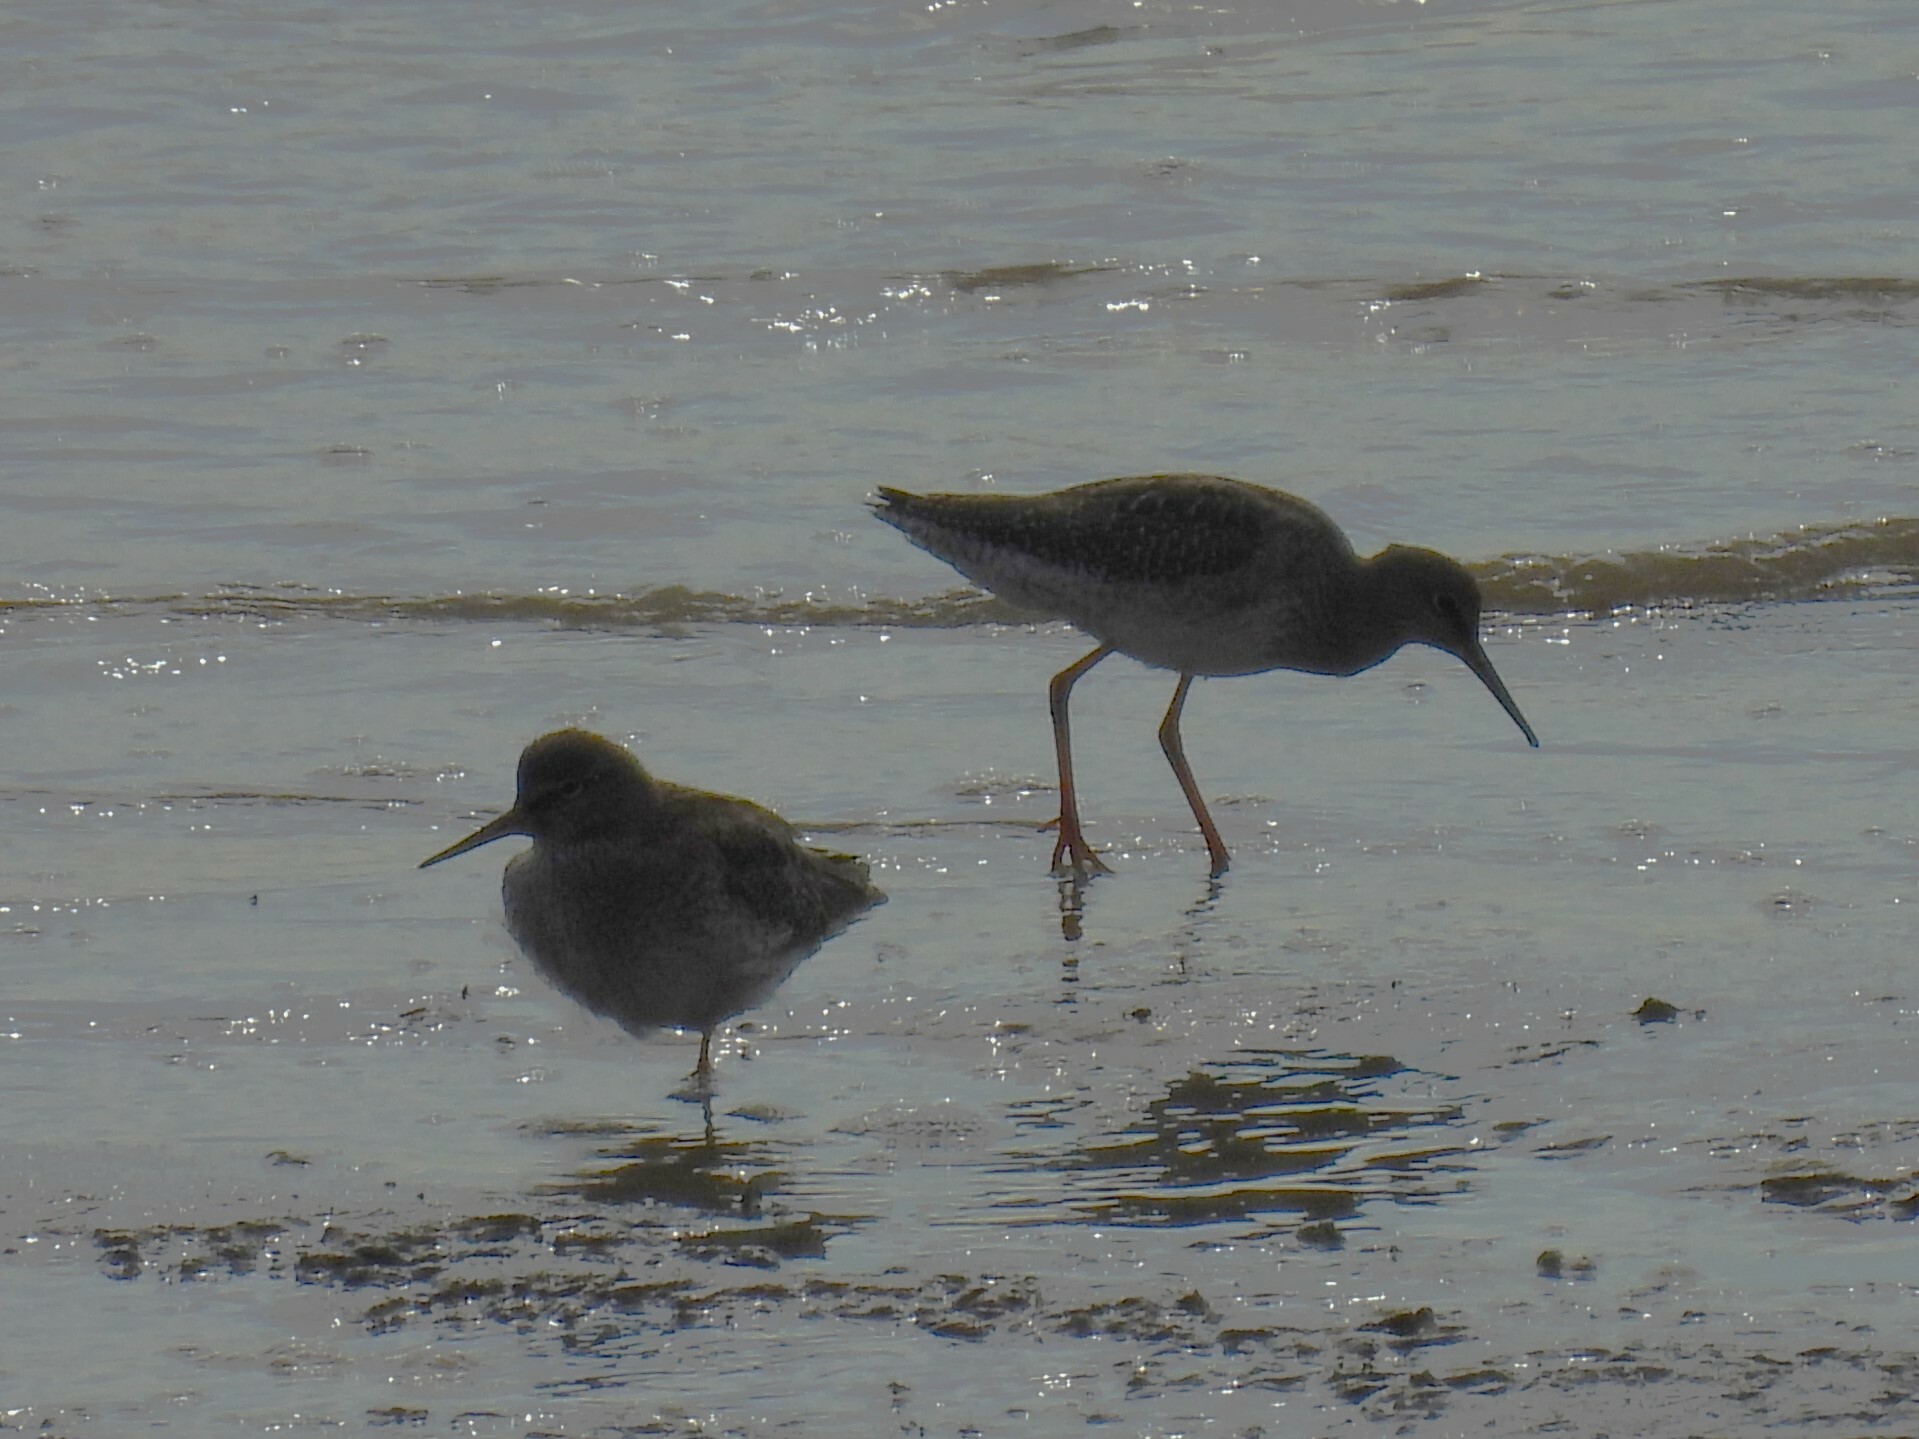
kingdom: Animalia
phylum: Chordata
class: Aves
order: Charadriiformes
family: Scolopacidae
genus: Tringa
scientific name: Tringa totanus
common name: Common redshank
